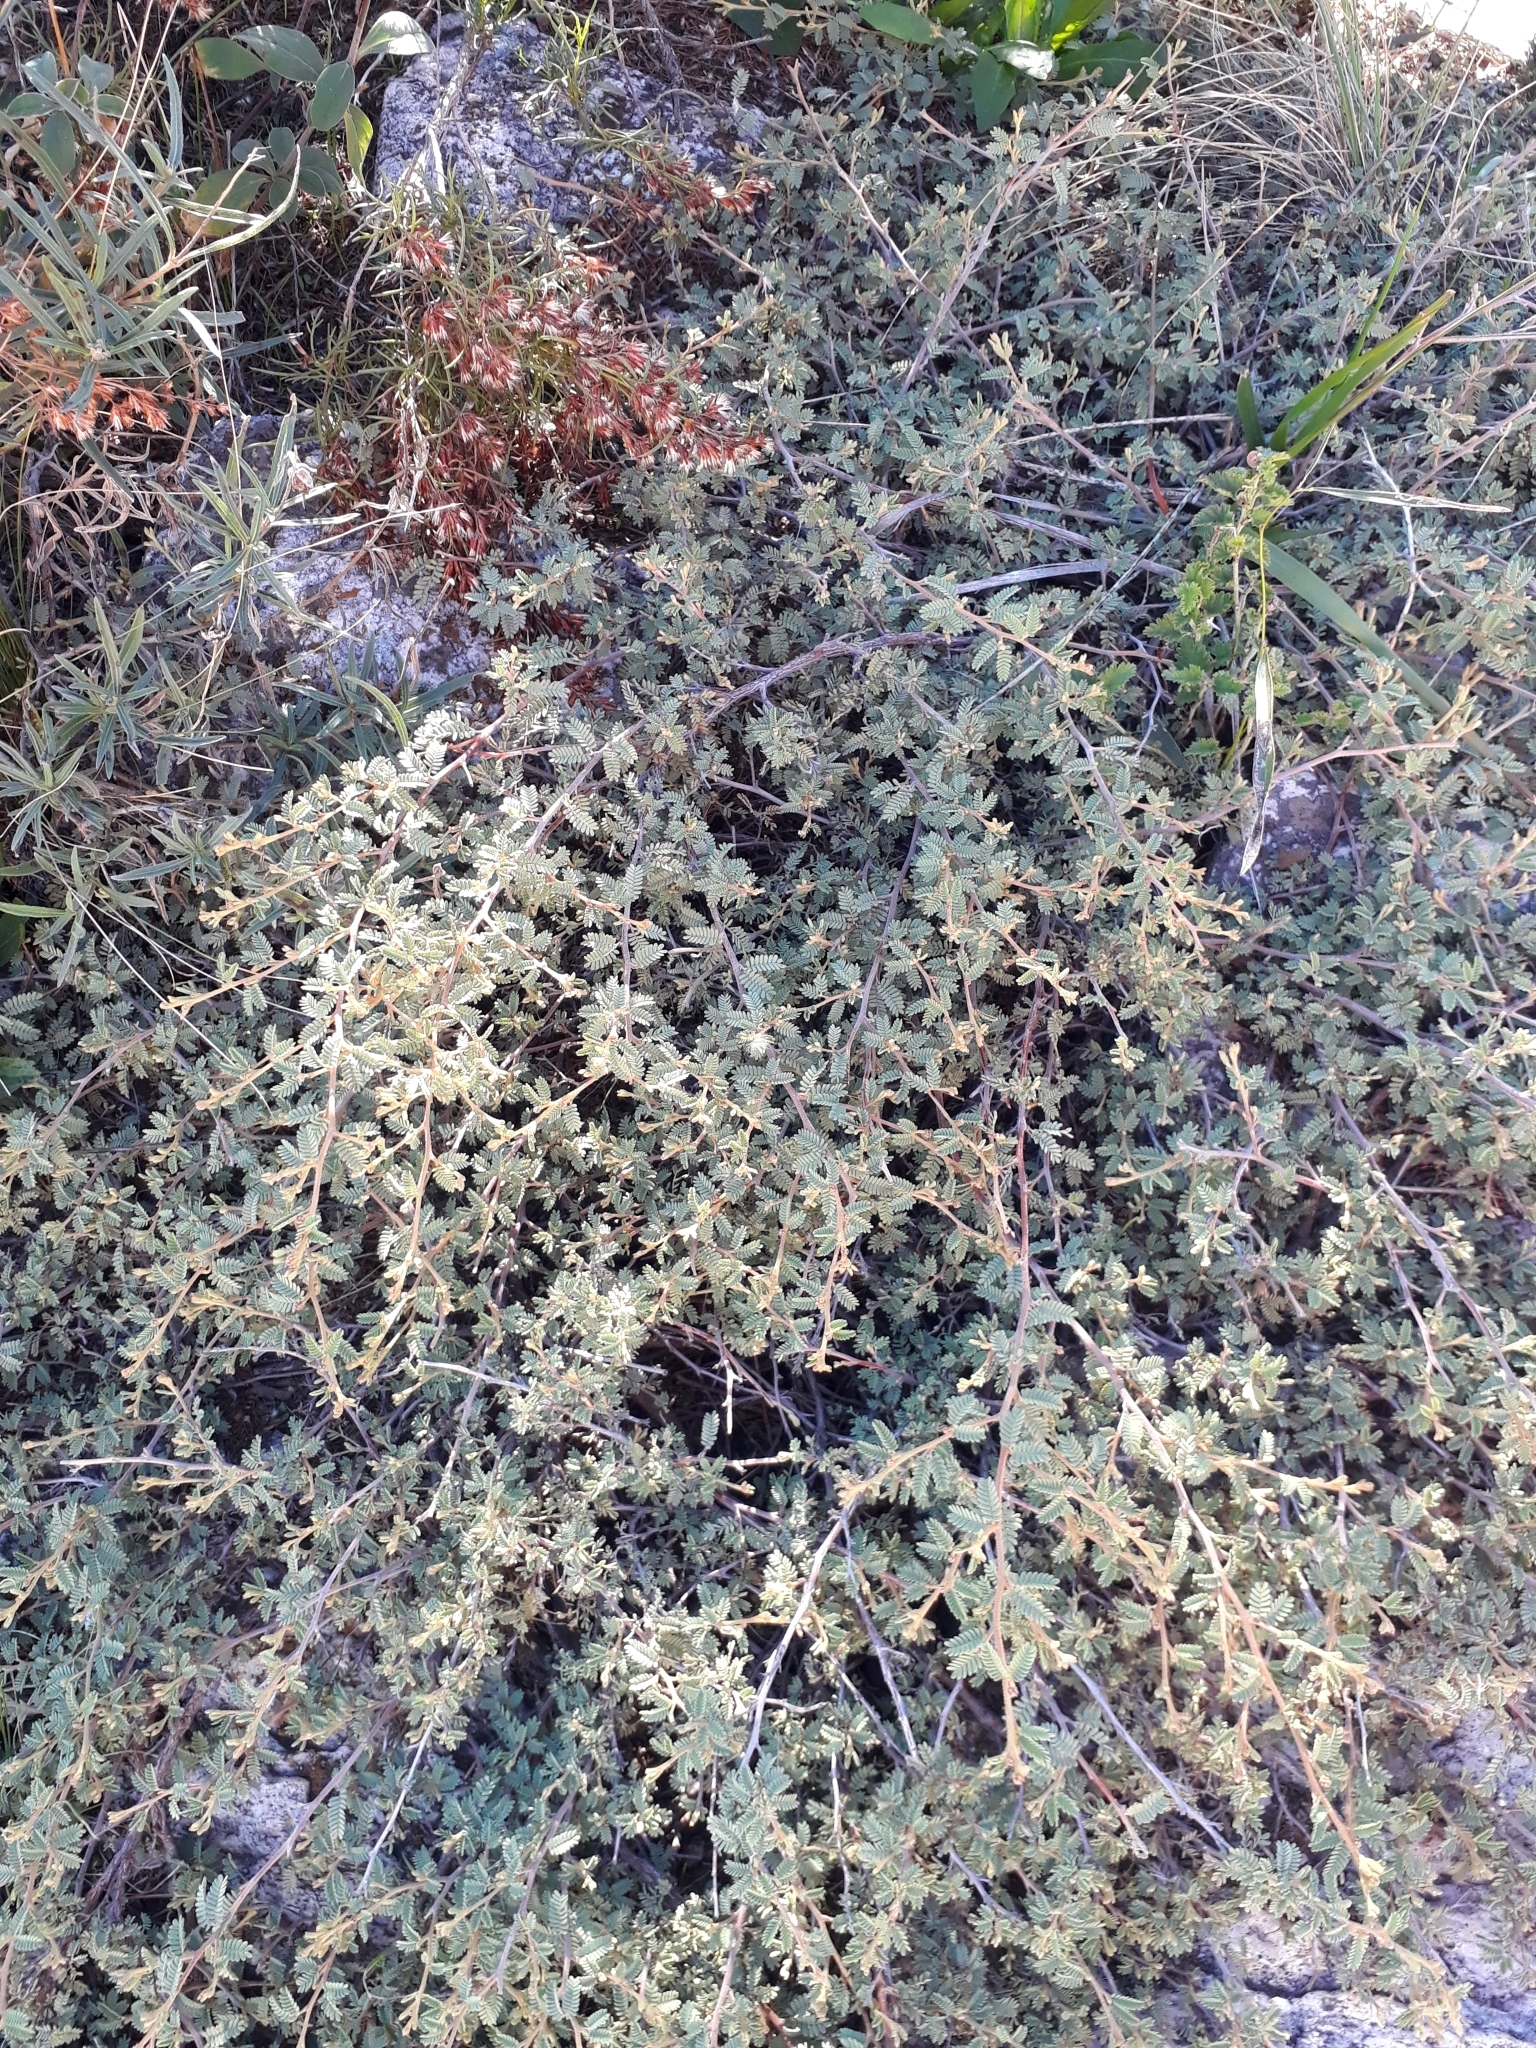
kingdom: Plantae
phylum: Tracheophyta
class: Magnoliopsida
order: Fabales
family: Fabaceae
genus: Mimosa
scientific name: Mimosa rocae
